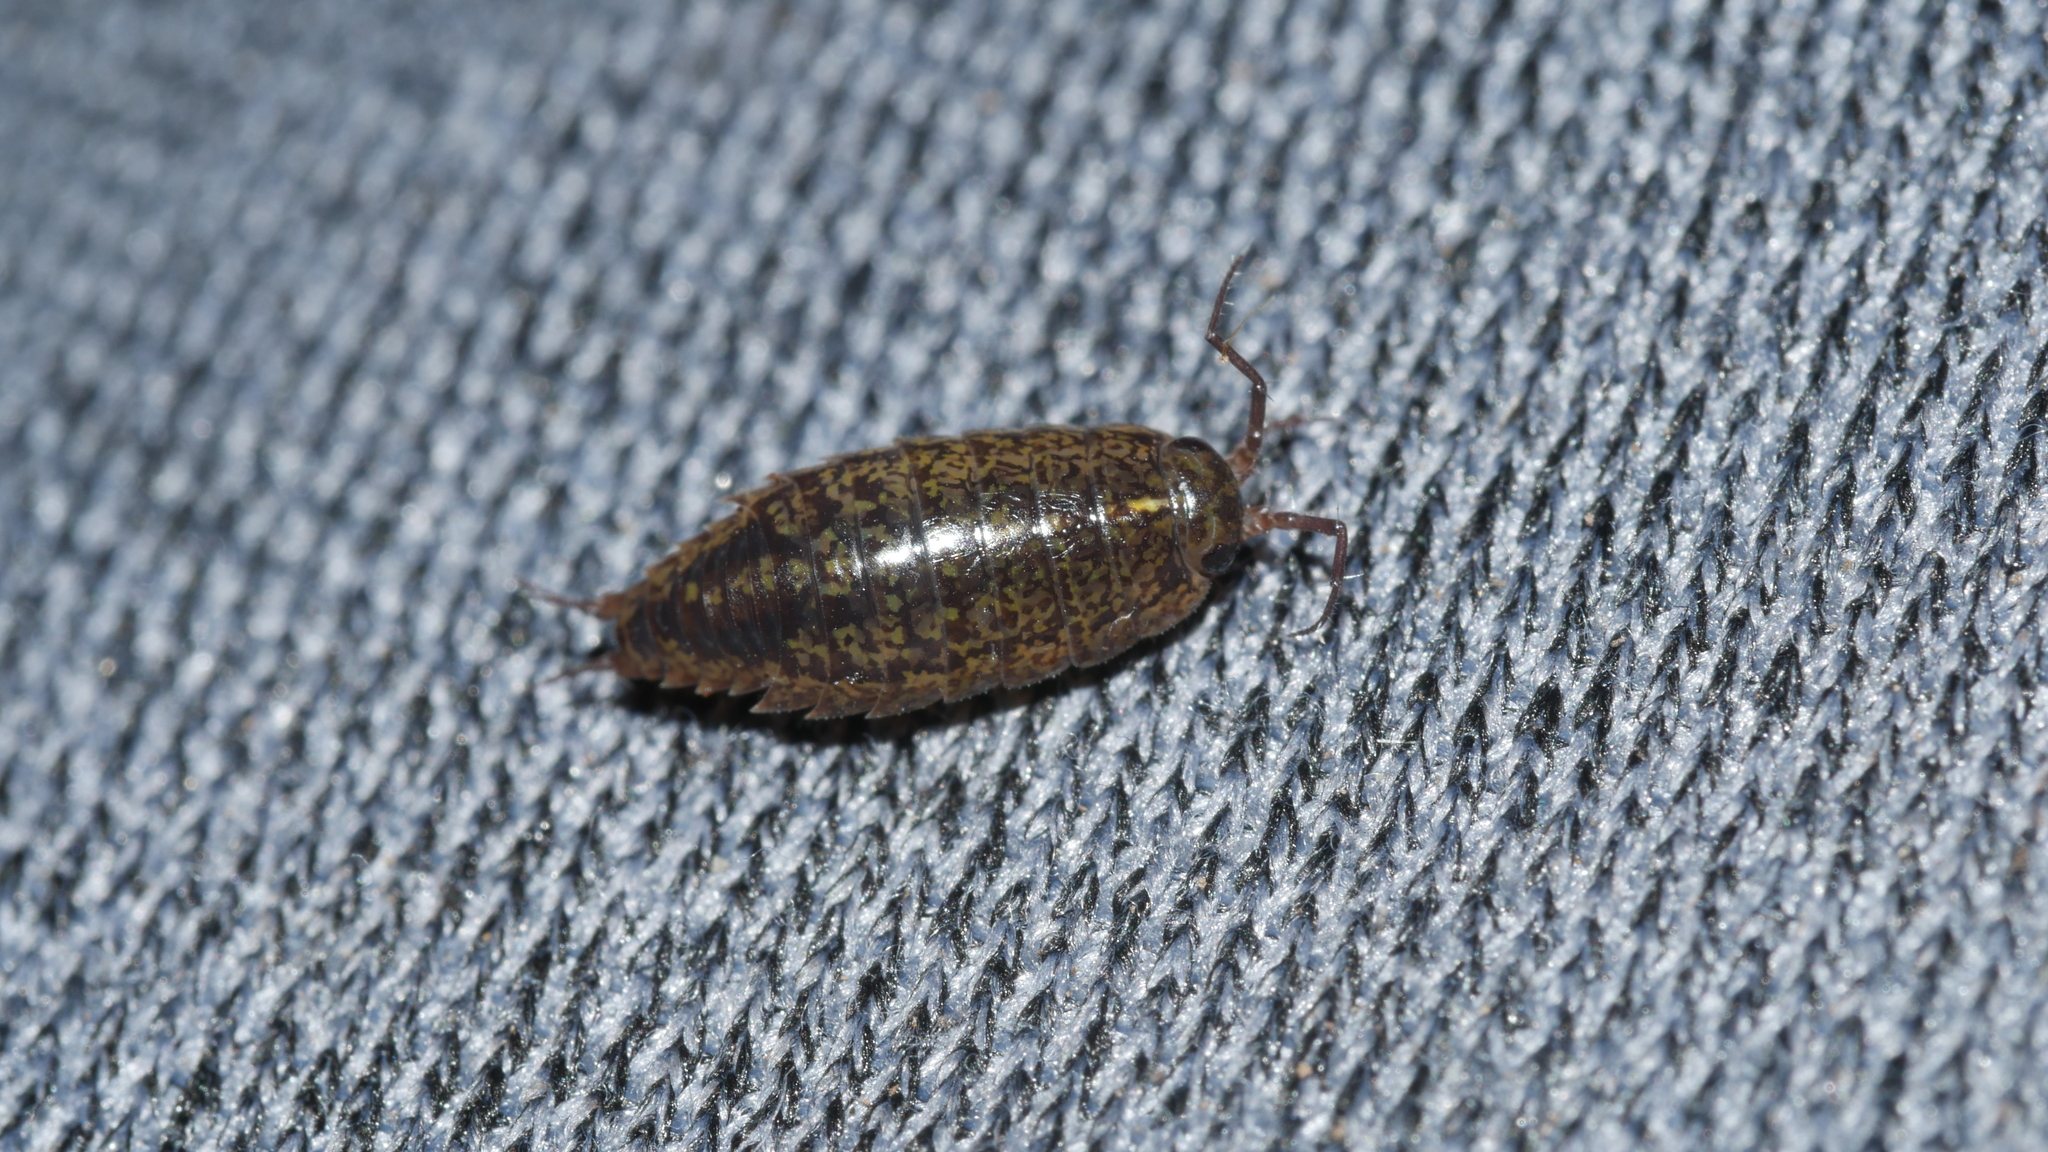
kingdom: Animalia
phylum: Arthropoda
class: Malacostraca
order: Isopoda
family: Ligiidae
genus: Ligidium
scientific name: Ligidium elrodii
